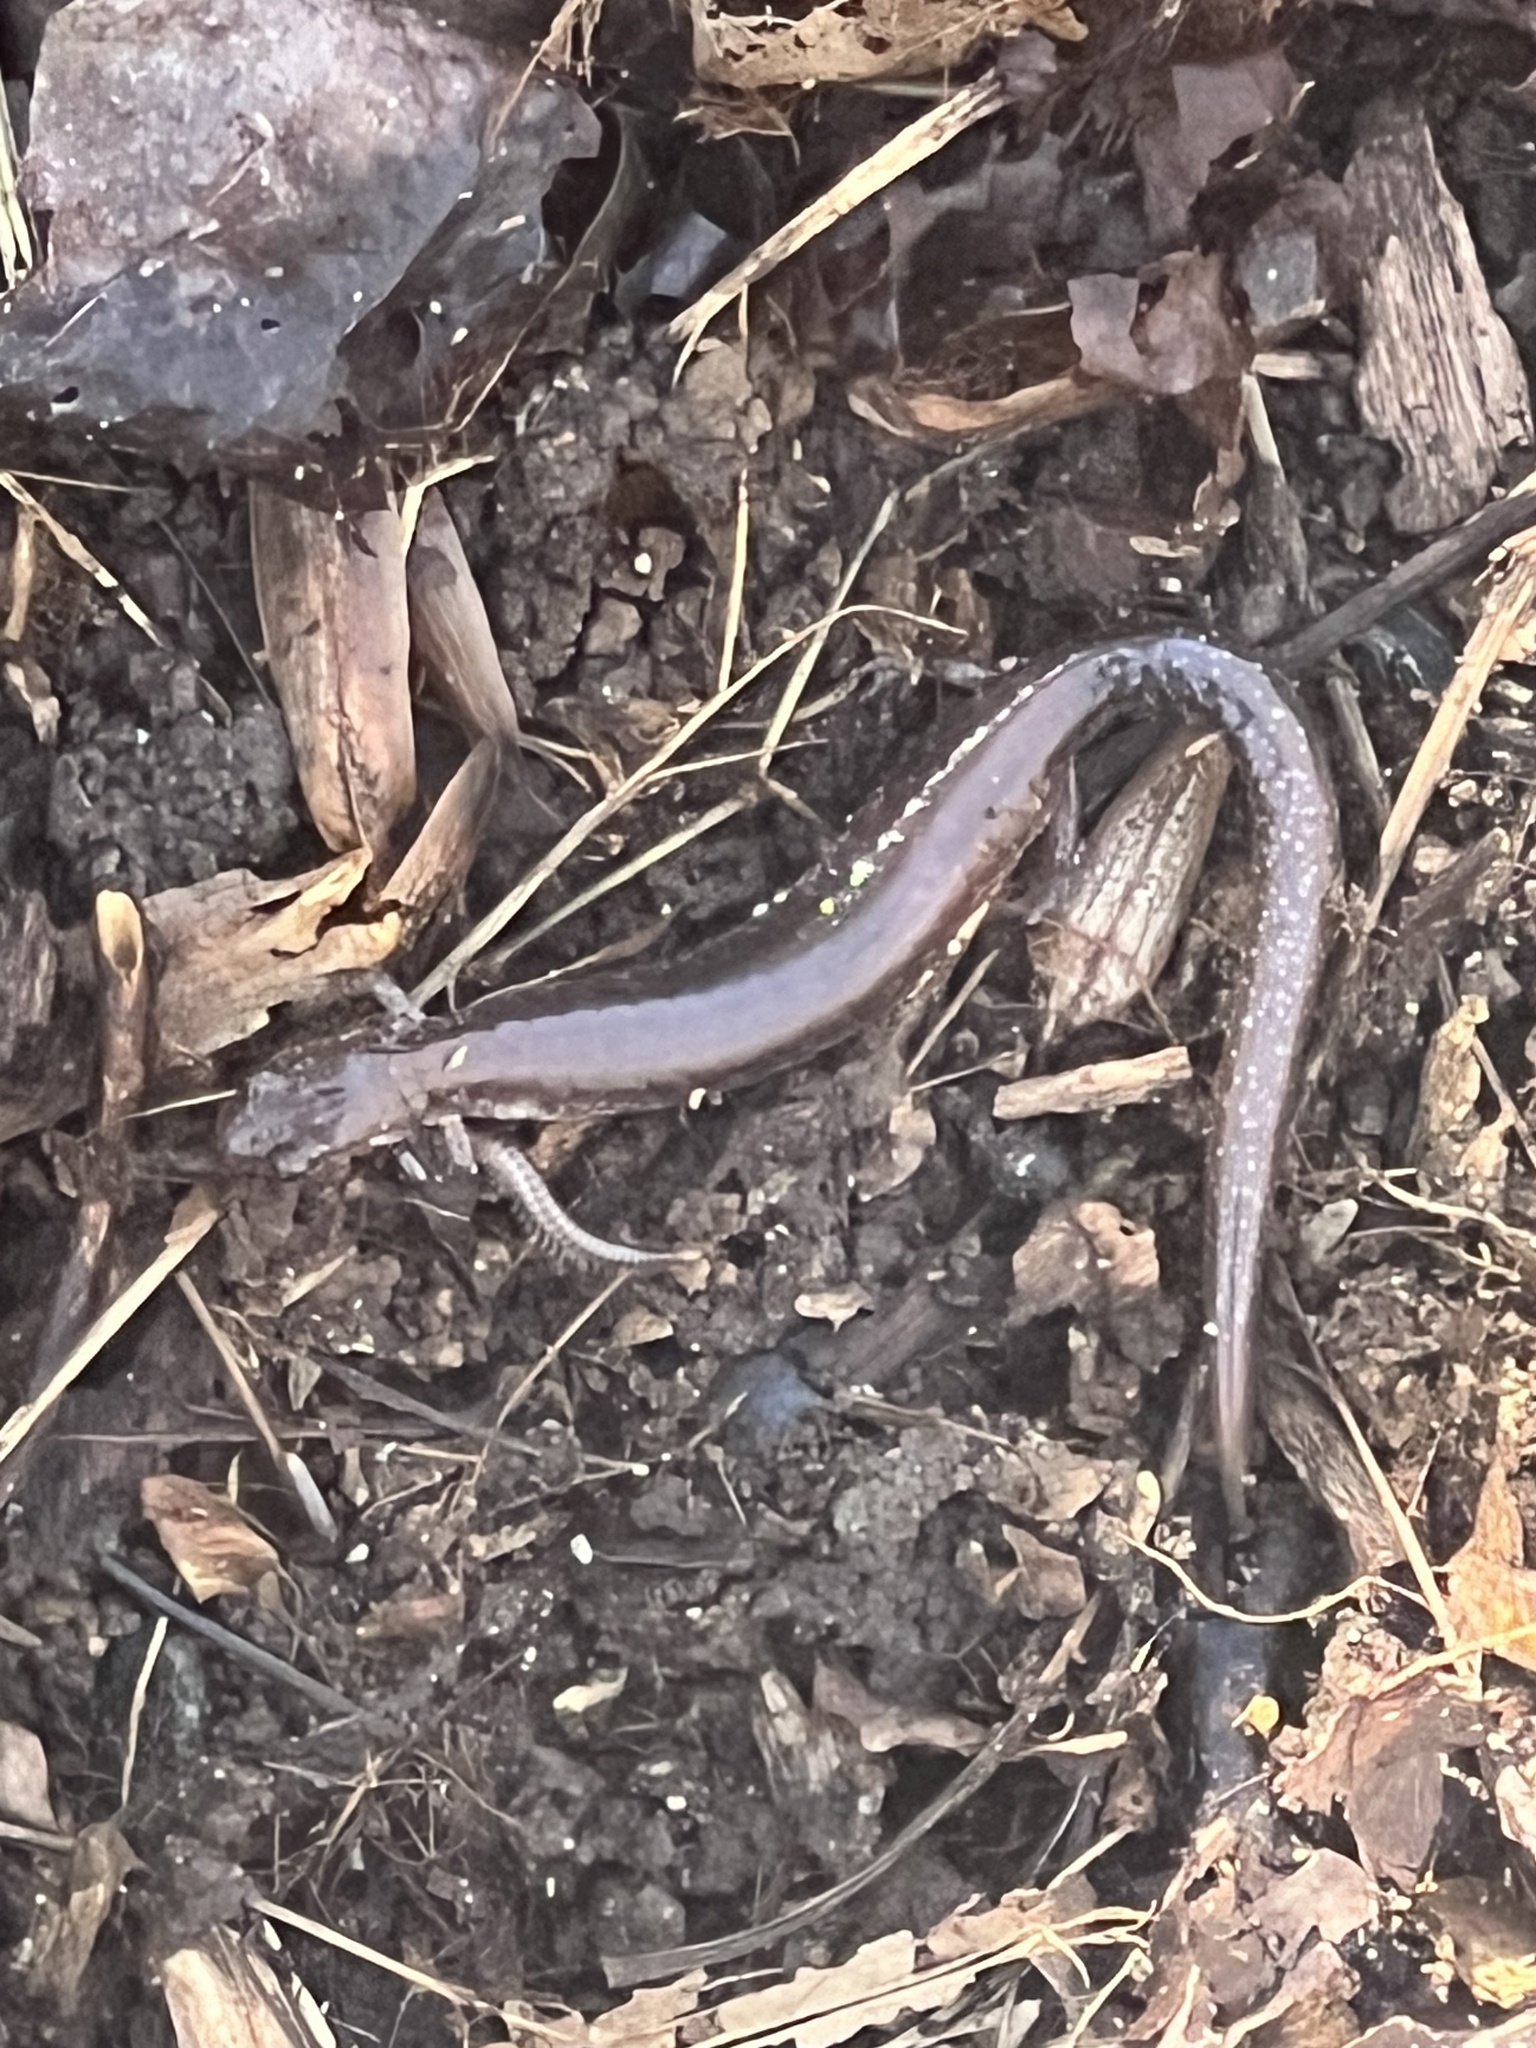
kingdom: Animalia
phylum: Chordata
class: Amphibia
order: Caudata
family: Plethodontidae
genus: Plethodon
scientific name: Plethodon cinereus
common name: Redback salamander
